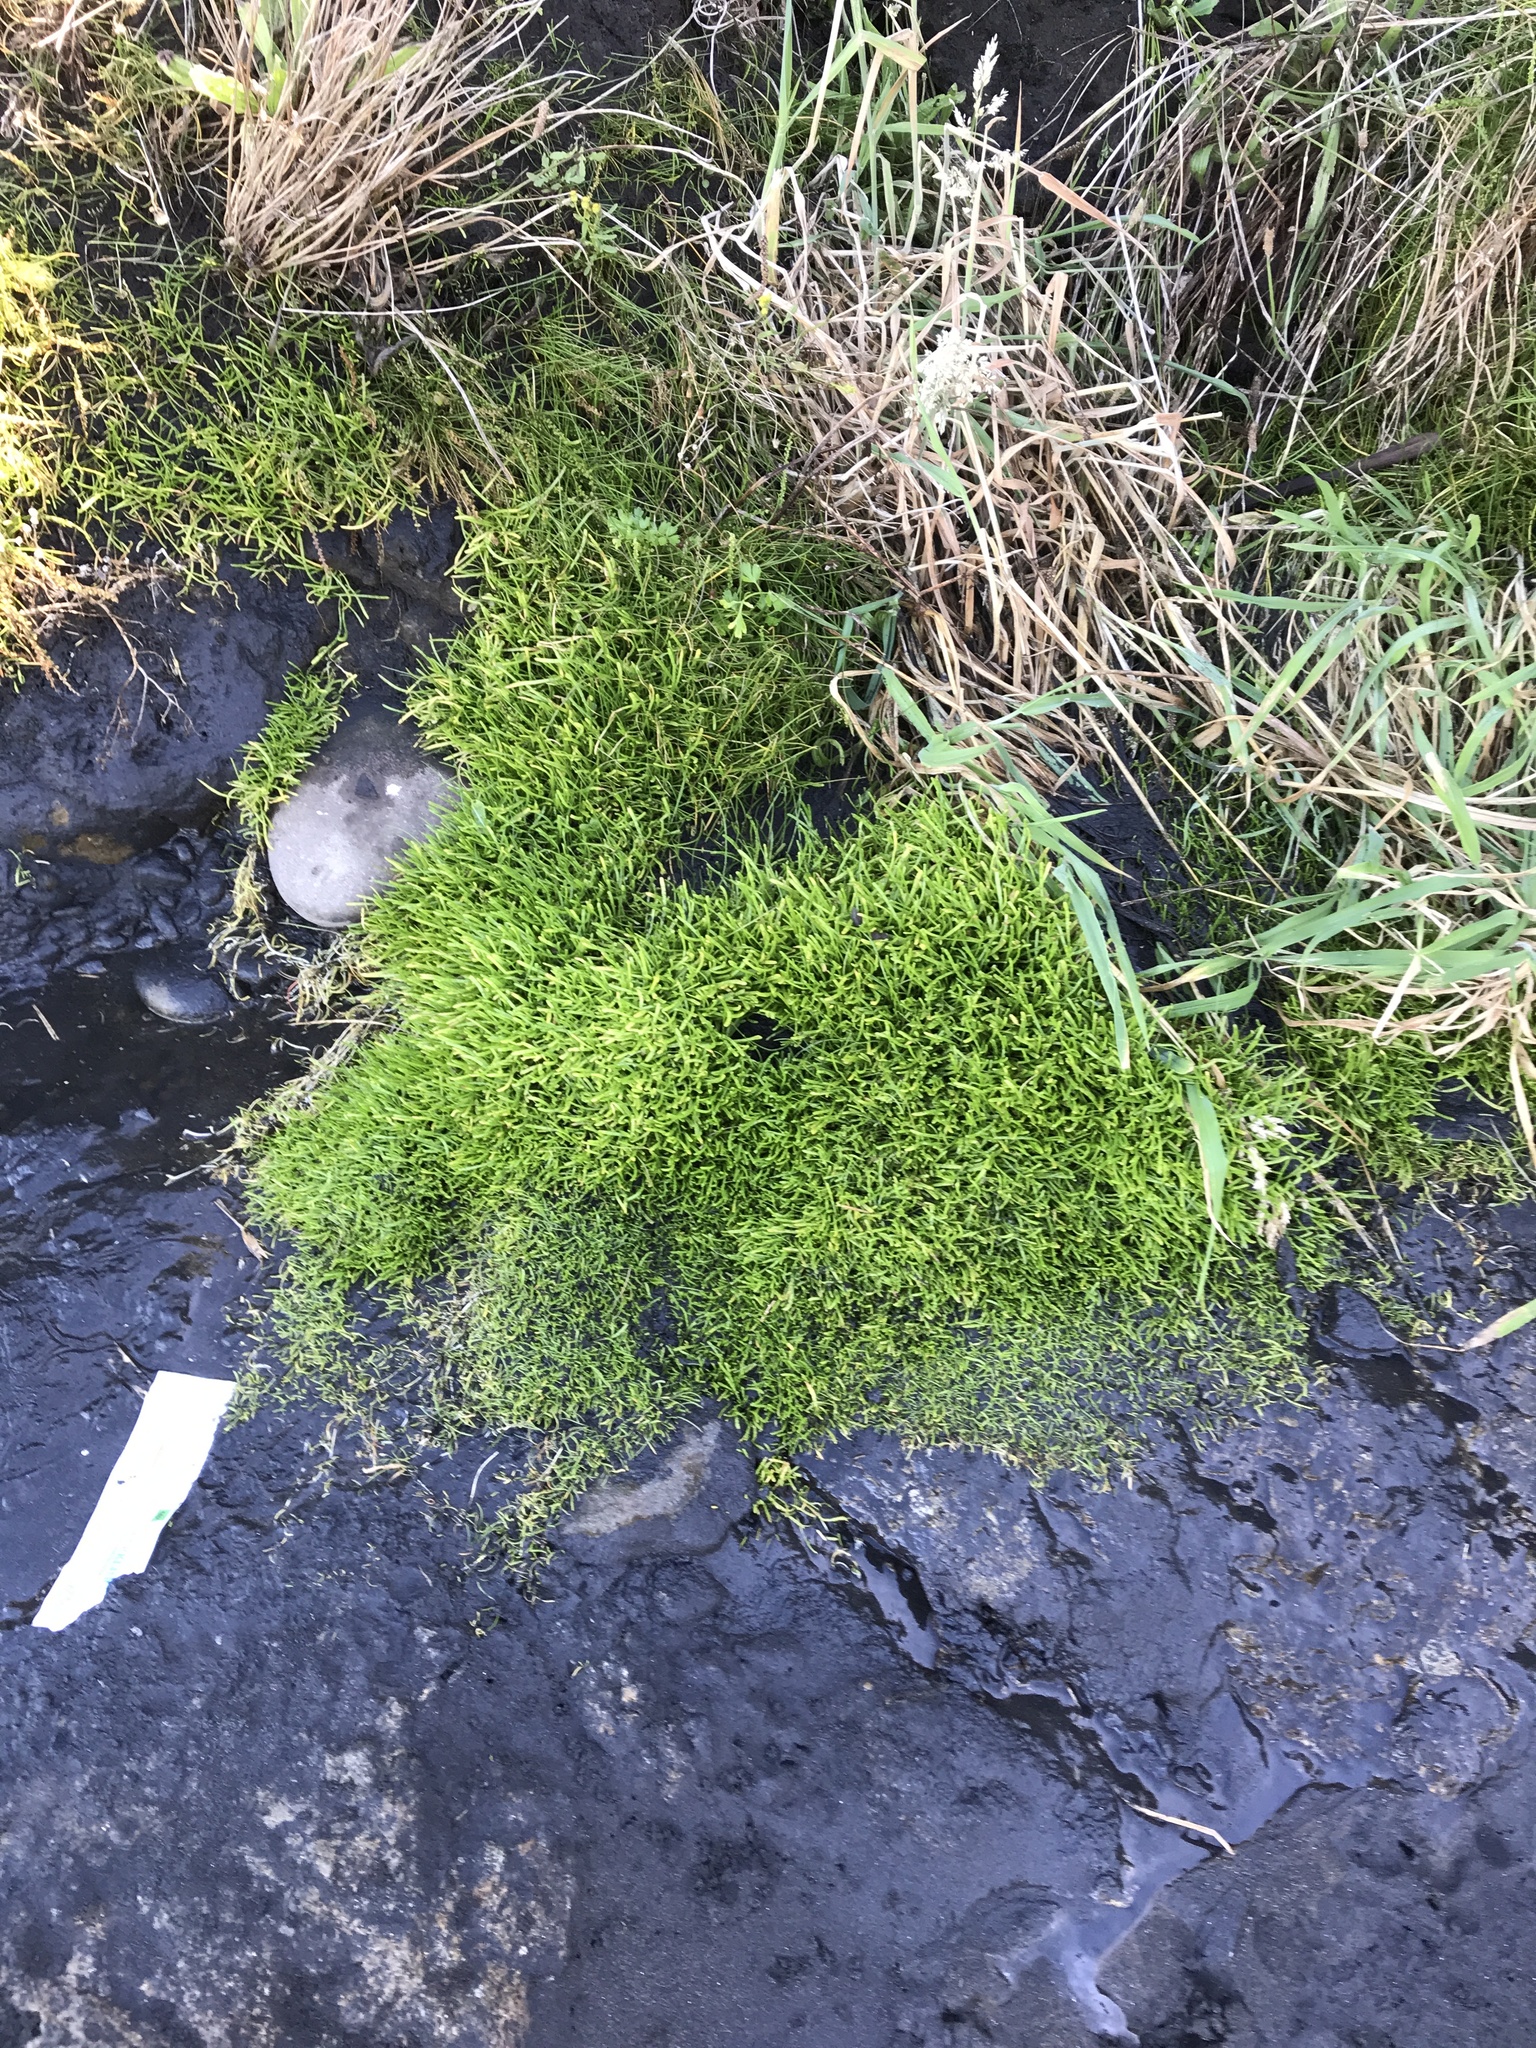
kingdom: Plantae
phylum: Tracheophyta
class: Magnoliopsida
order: Apiales
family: Apiaceae
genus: Lilaeopsis
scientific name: Lilaeopsis novae-zelandiae
